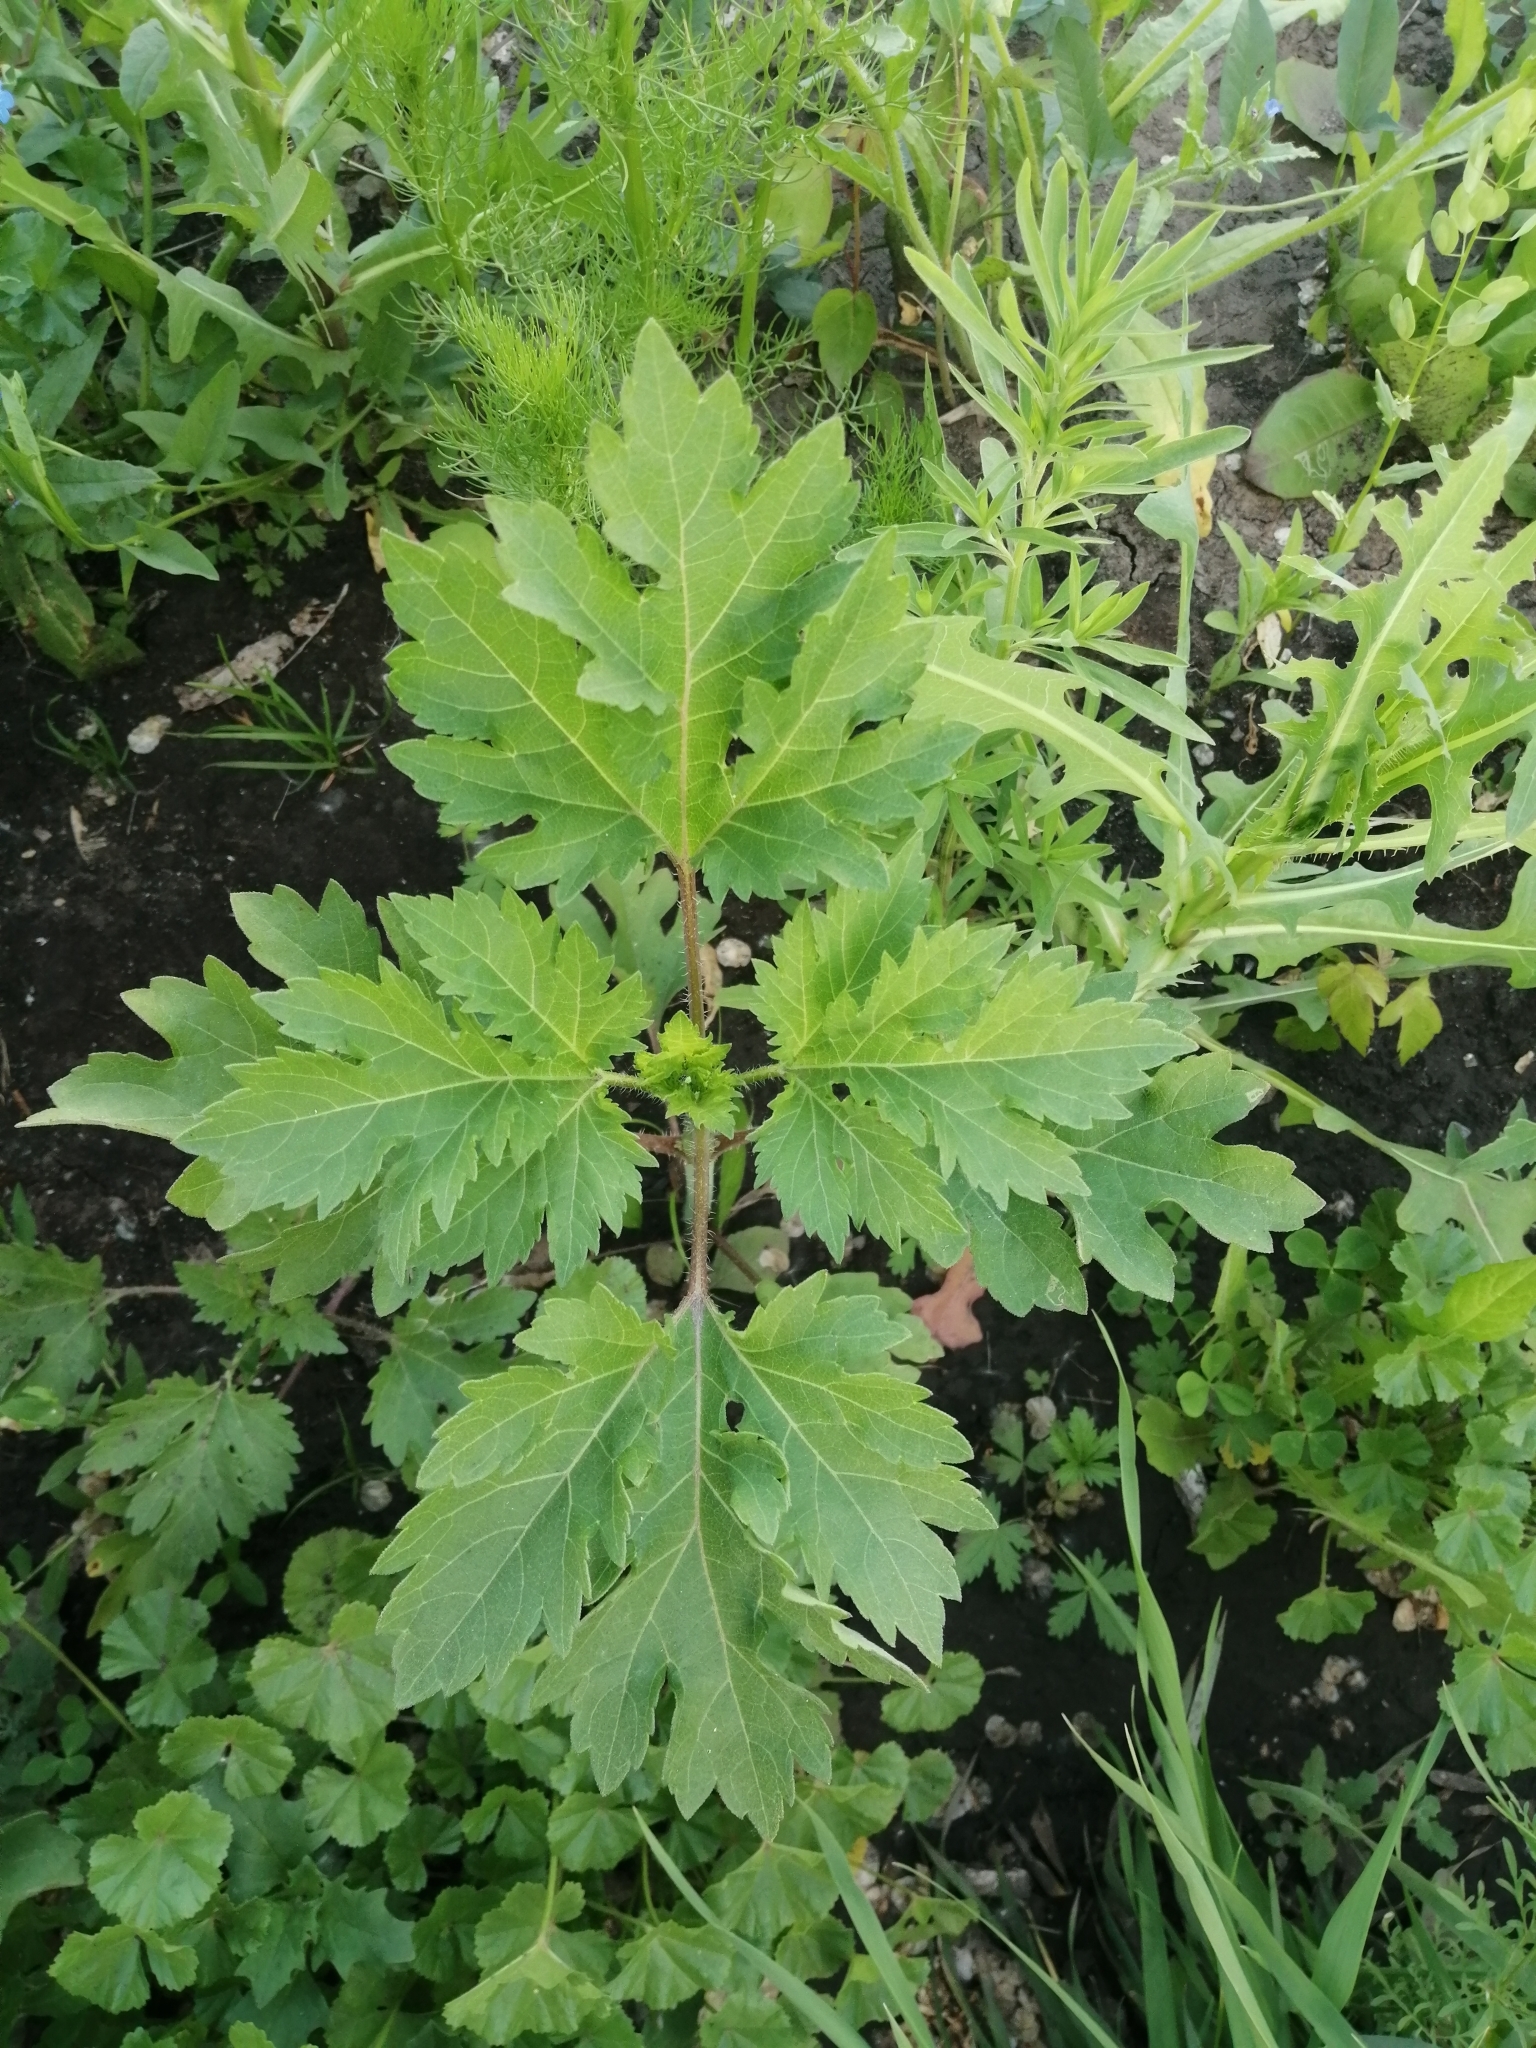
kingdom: Plantae
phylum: Tracheophyta
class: Magnoliopsida
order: Asterales
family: Asteraceae
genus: Cyclachaena
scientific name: Cyclachaena xanthiifolia
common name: Giant sumpweed
